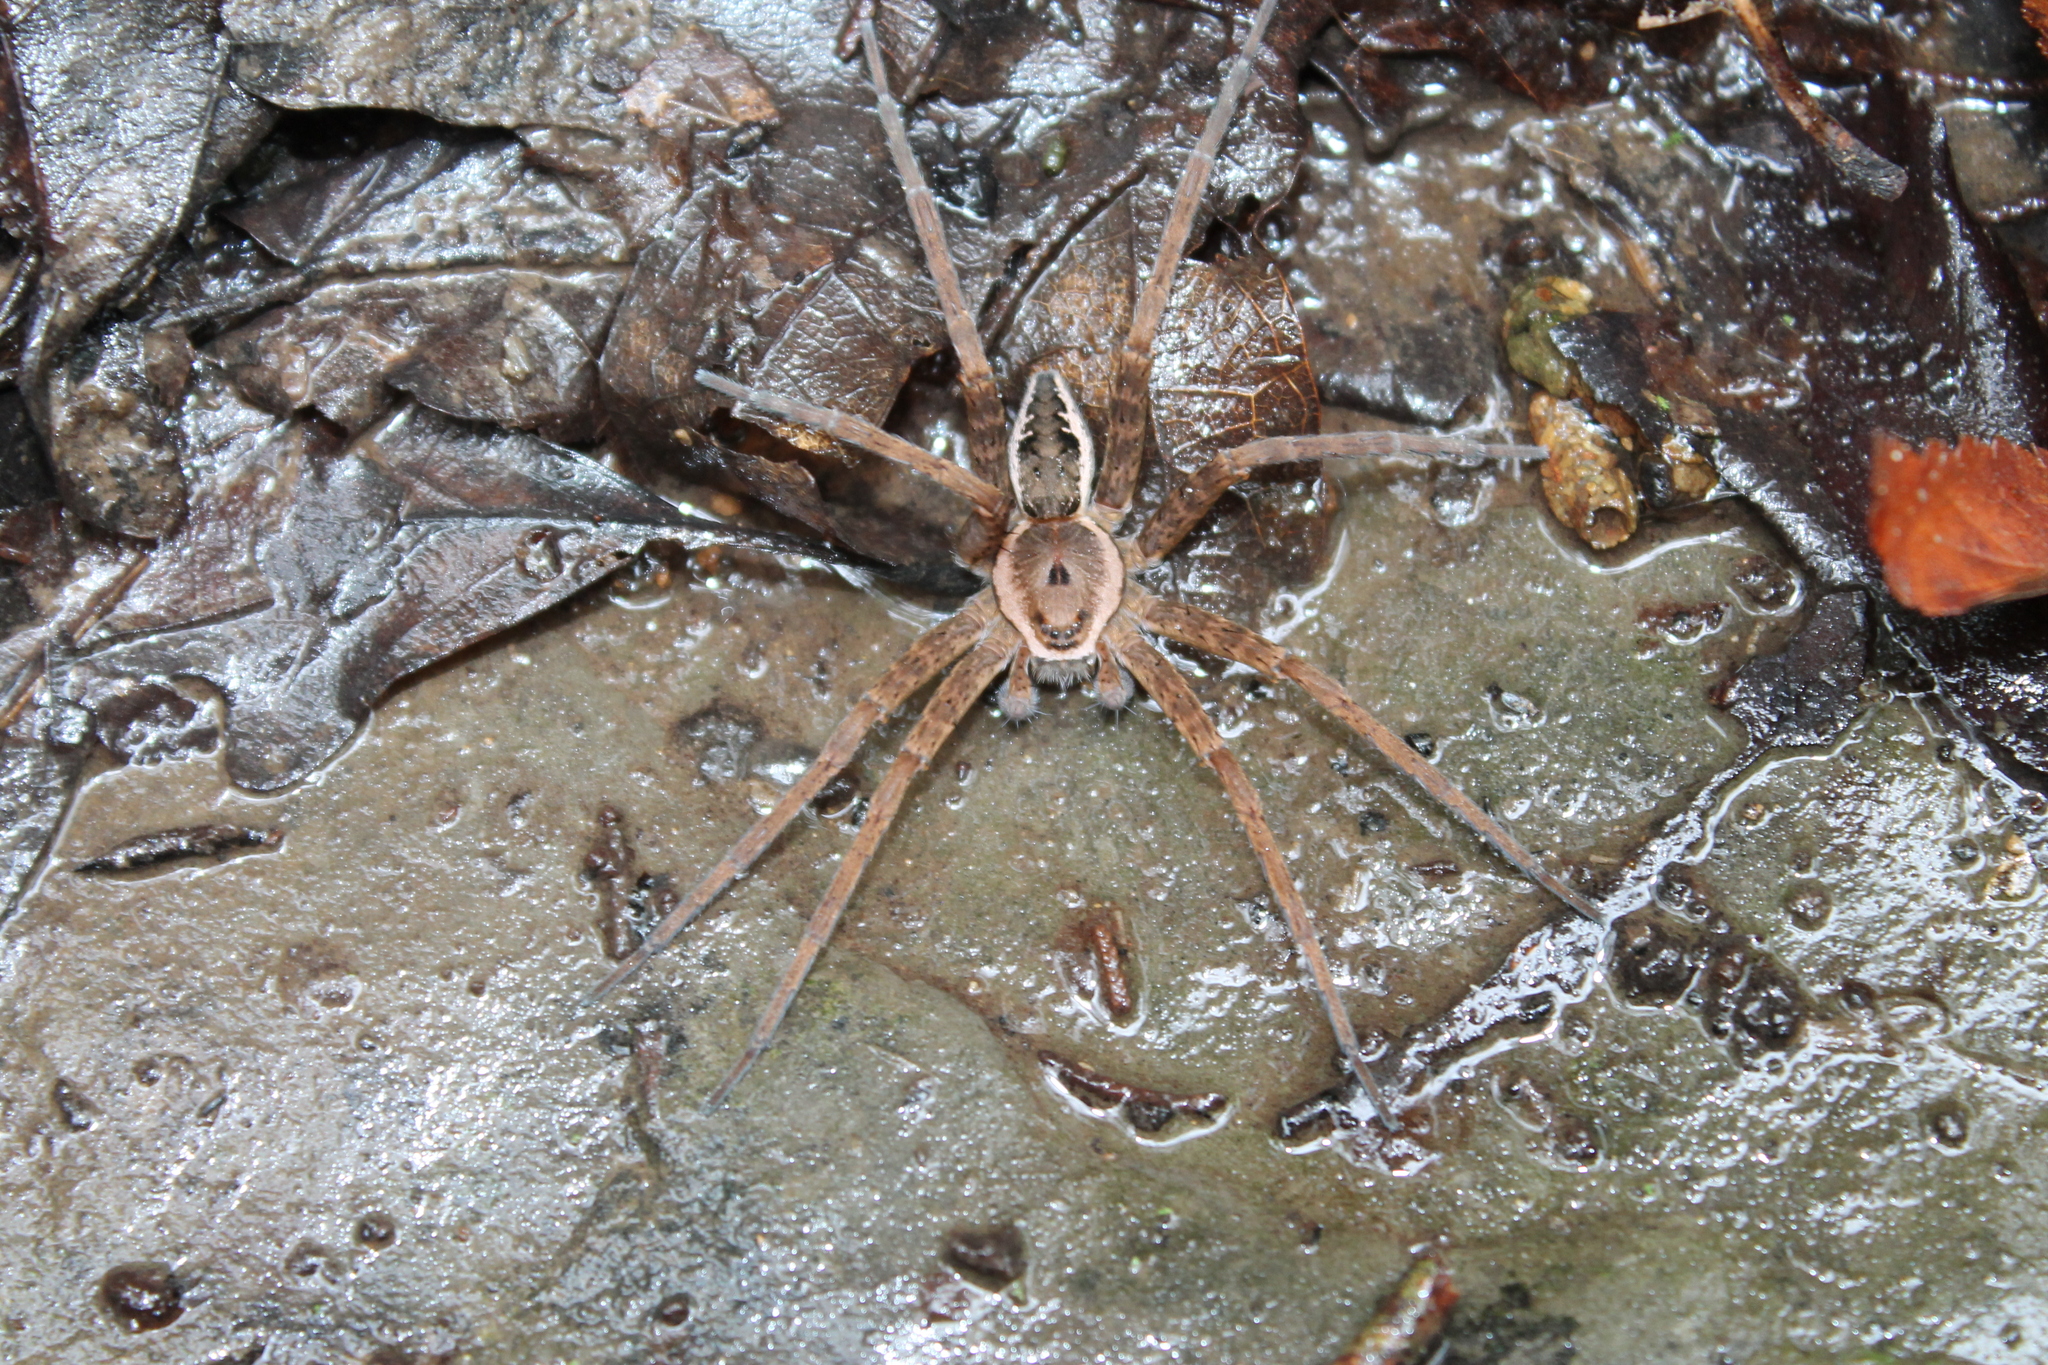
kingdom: Animalia
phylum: Arthropoda
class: Arachnida
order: Araneae
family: Pisauridae
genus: Dolomedes
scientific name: Dolomedes vittatus
